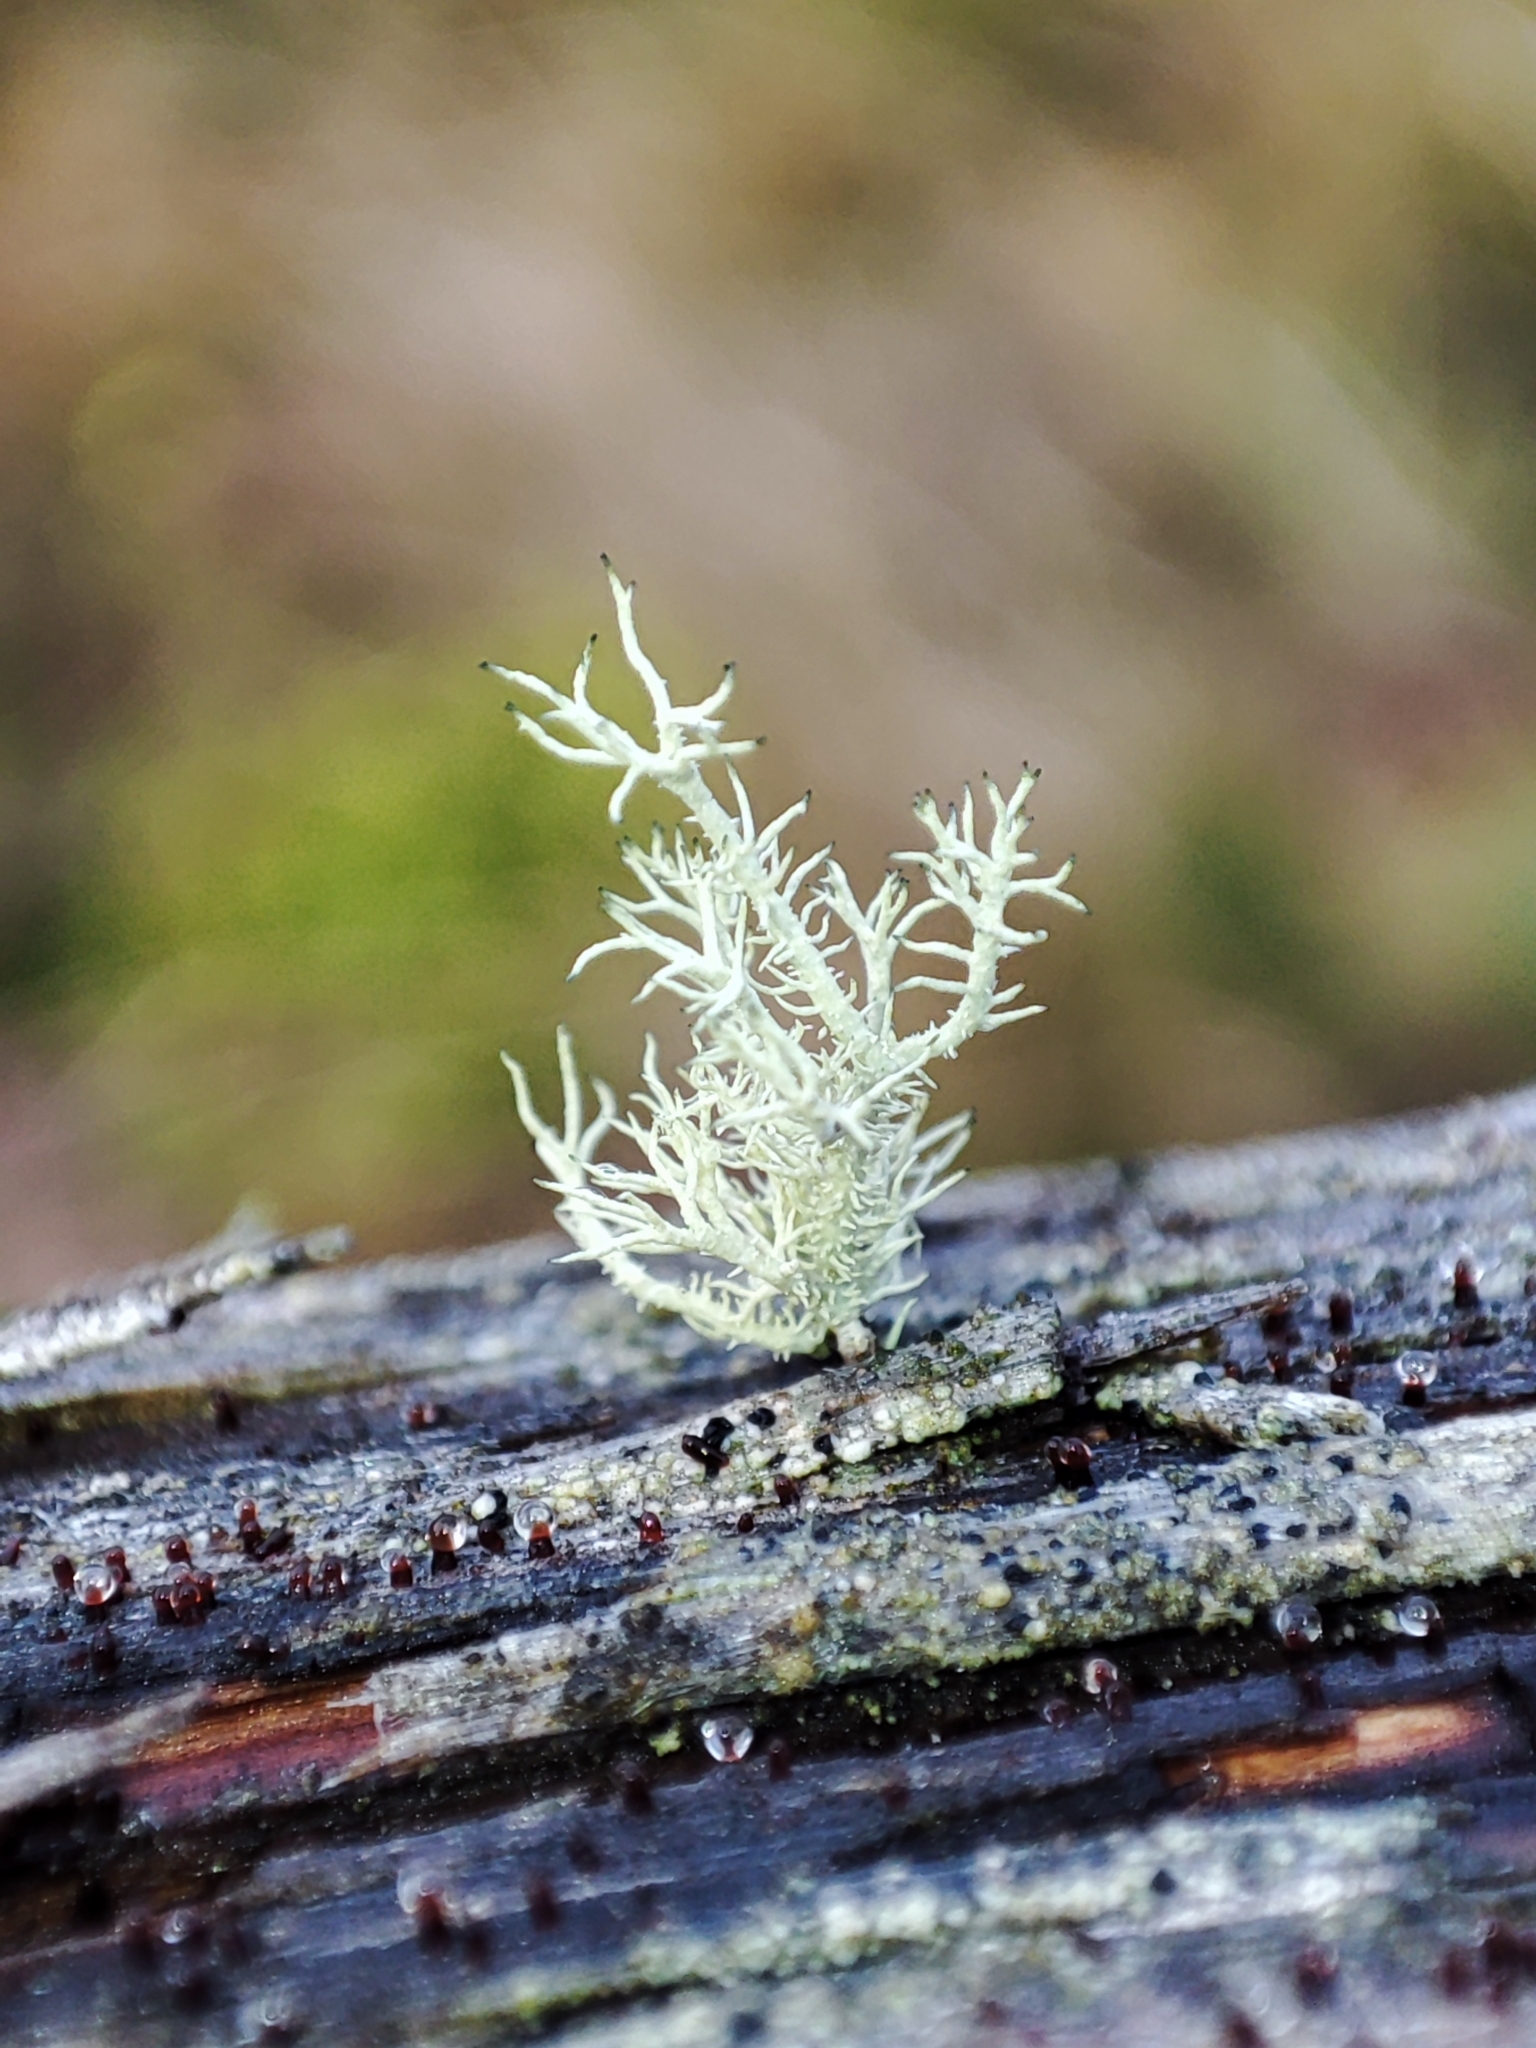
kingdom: Fungi
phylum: Ascomycota
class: Lecanoromycetes
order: Lecanorales
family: Parmeliaceae
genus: Usnea
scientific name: Usnea hirta
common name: Bristly beard lichen
